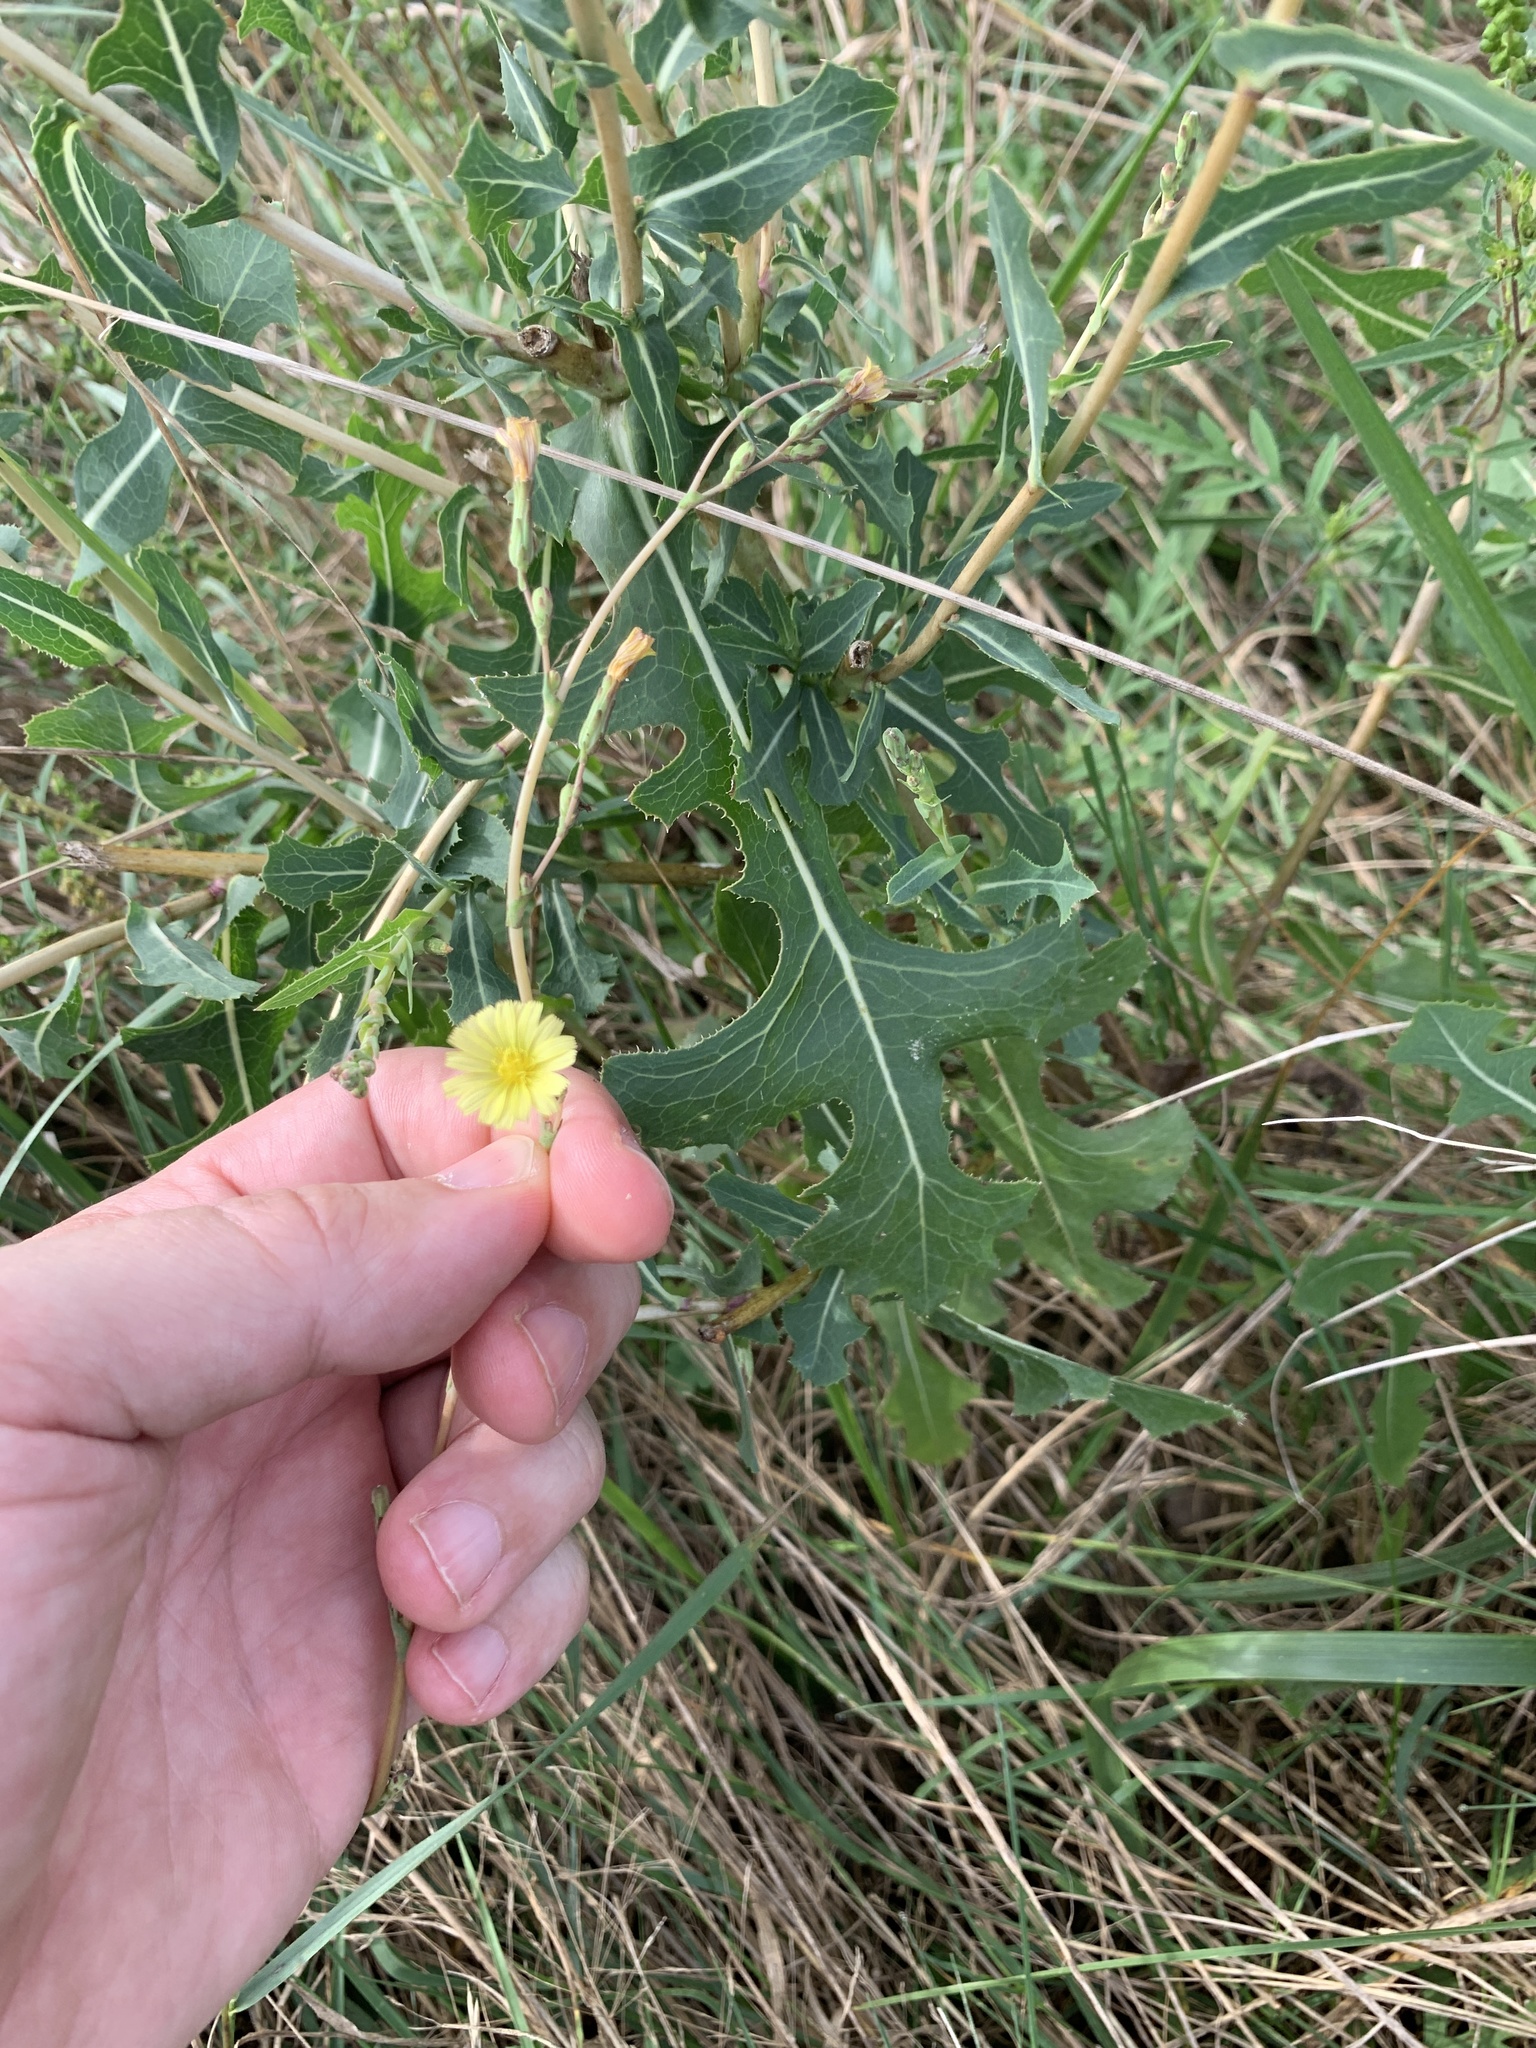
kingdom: Plantae
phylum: Tracheophyta
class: Magnoliopsida
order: Asterales
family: Asteraceae
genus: Lactuca
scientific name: Lactuca serriola
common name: Prickly lettuce
